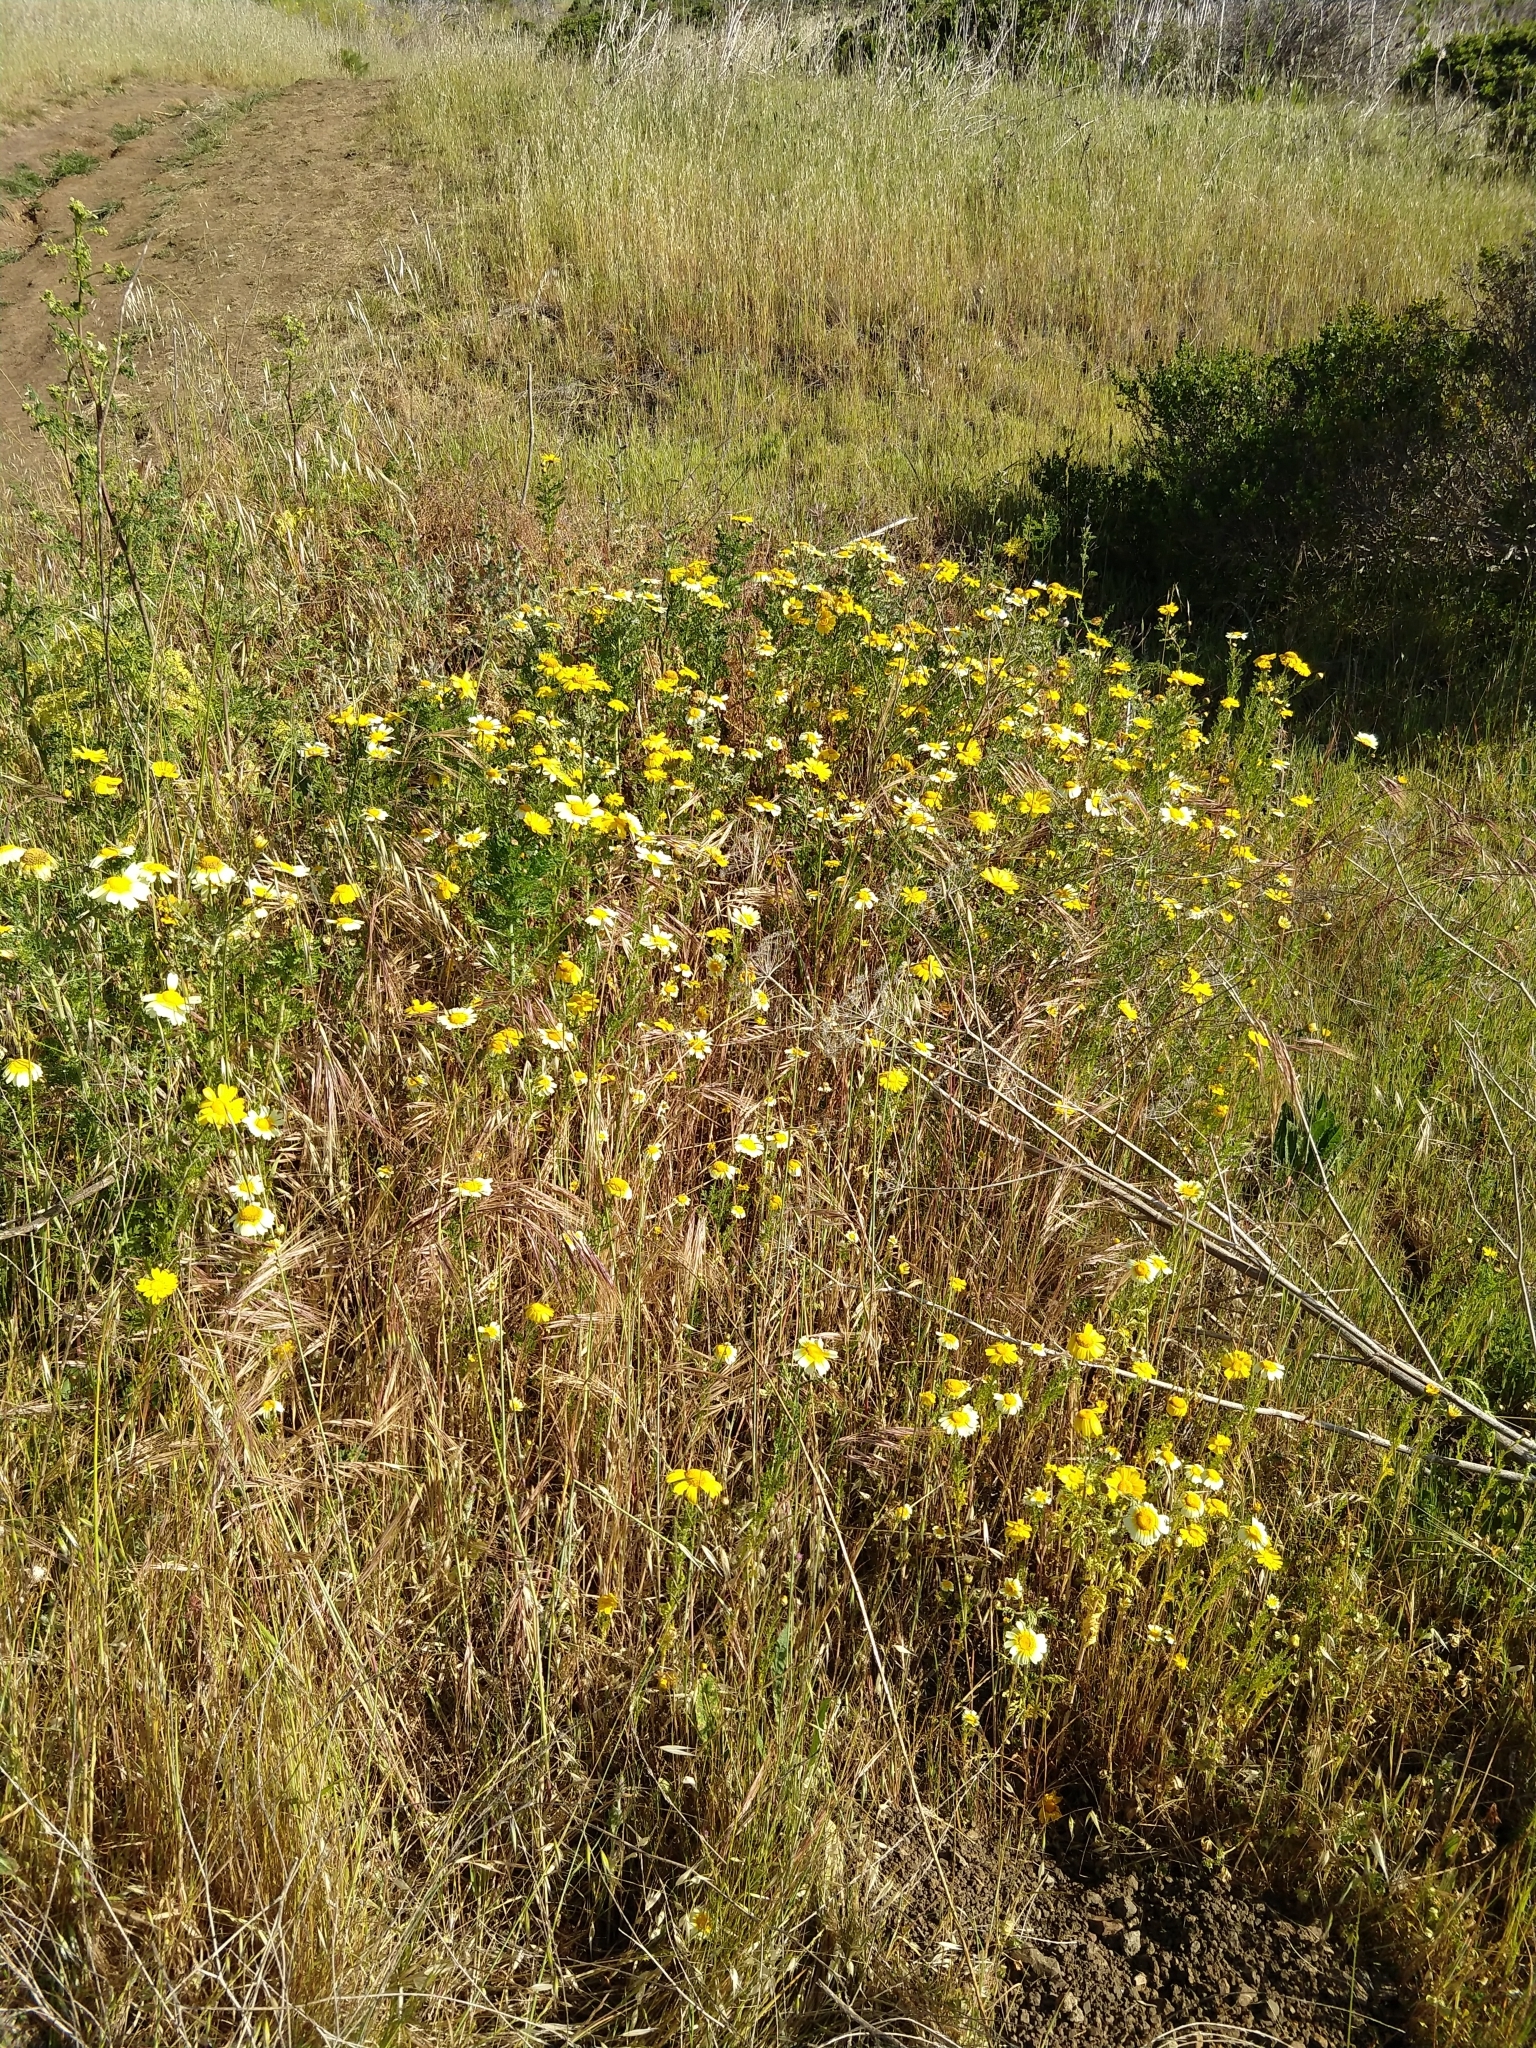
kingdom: Plantae
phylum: Tracheophyta
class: Magnoliopsida
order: Asterales
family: Asteraceae
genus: Glebionis
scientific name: Glebionis coronaria
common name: Crowndaisy
